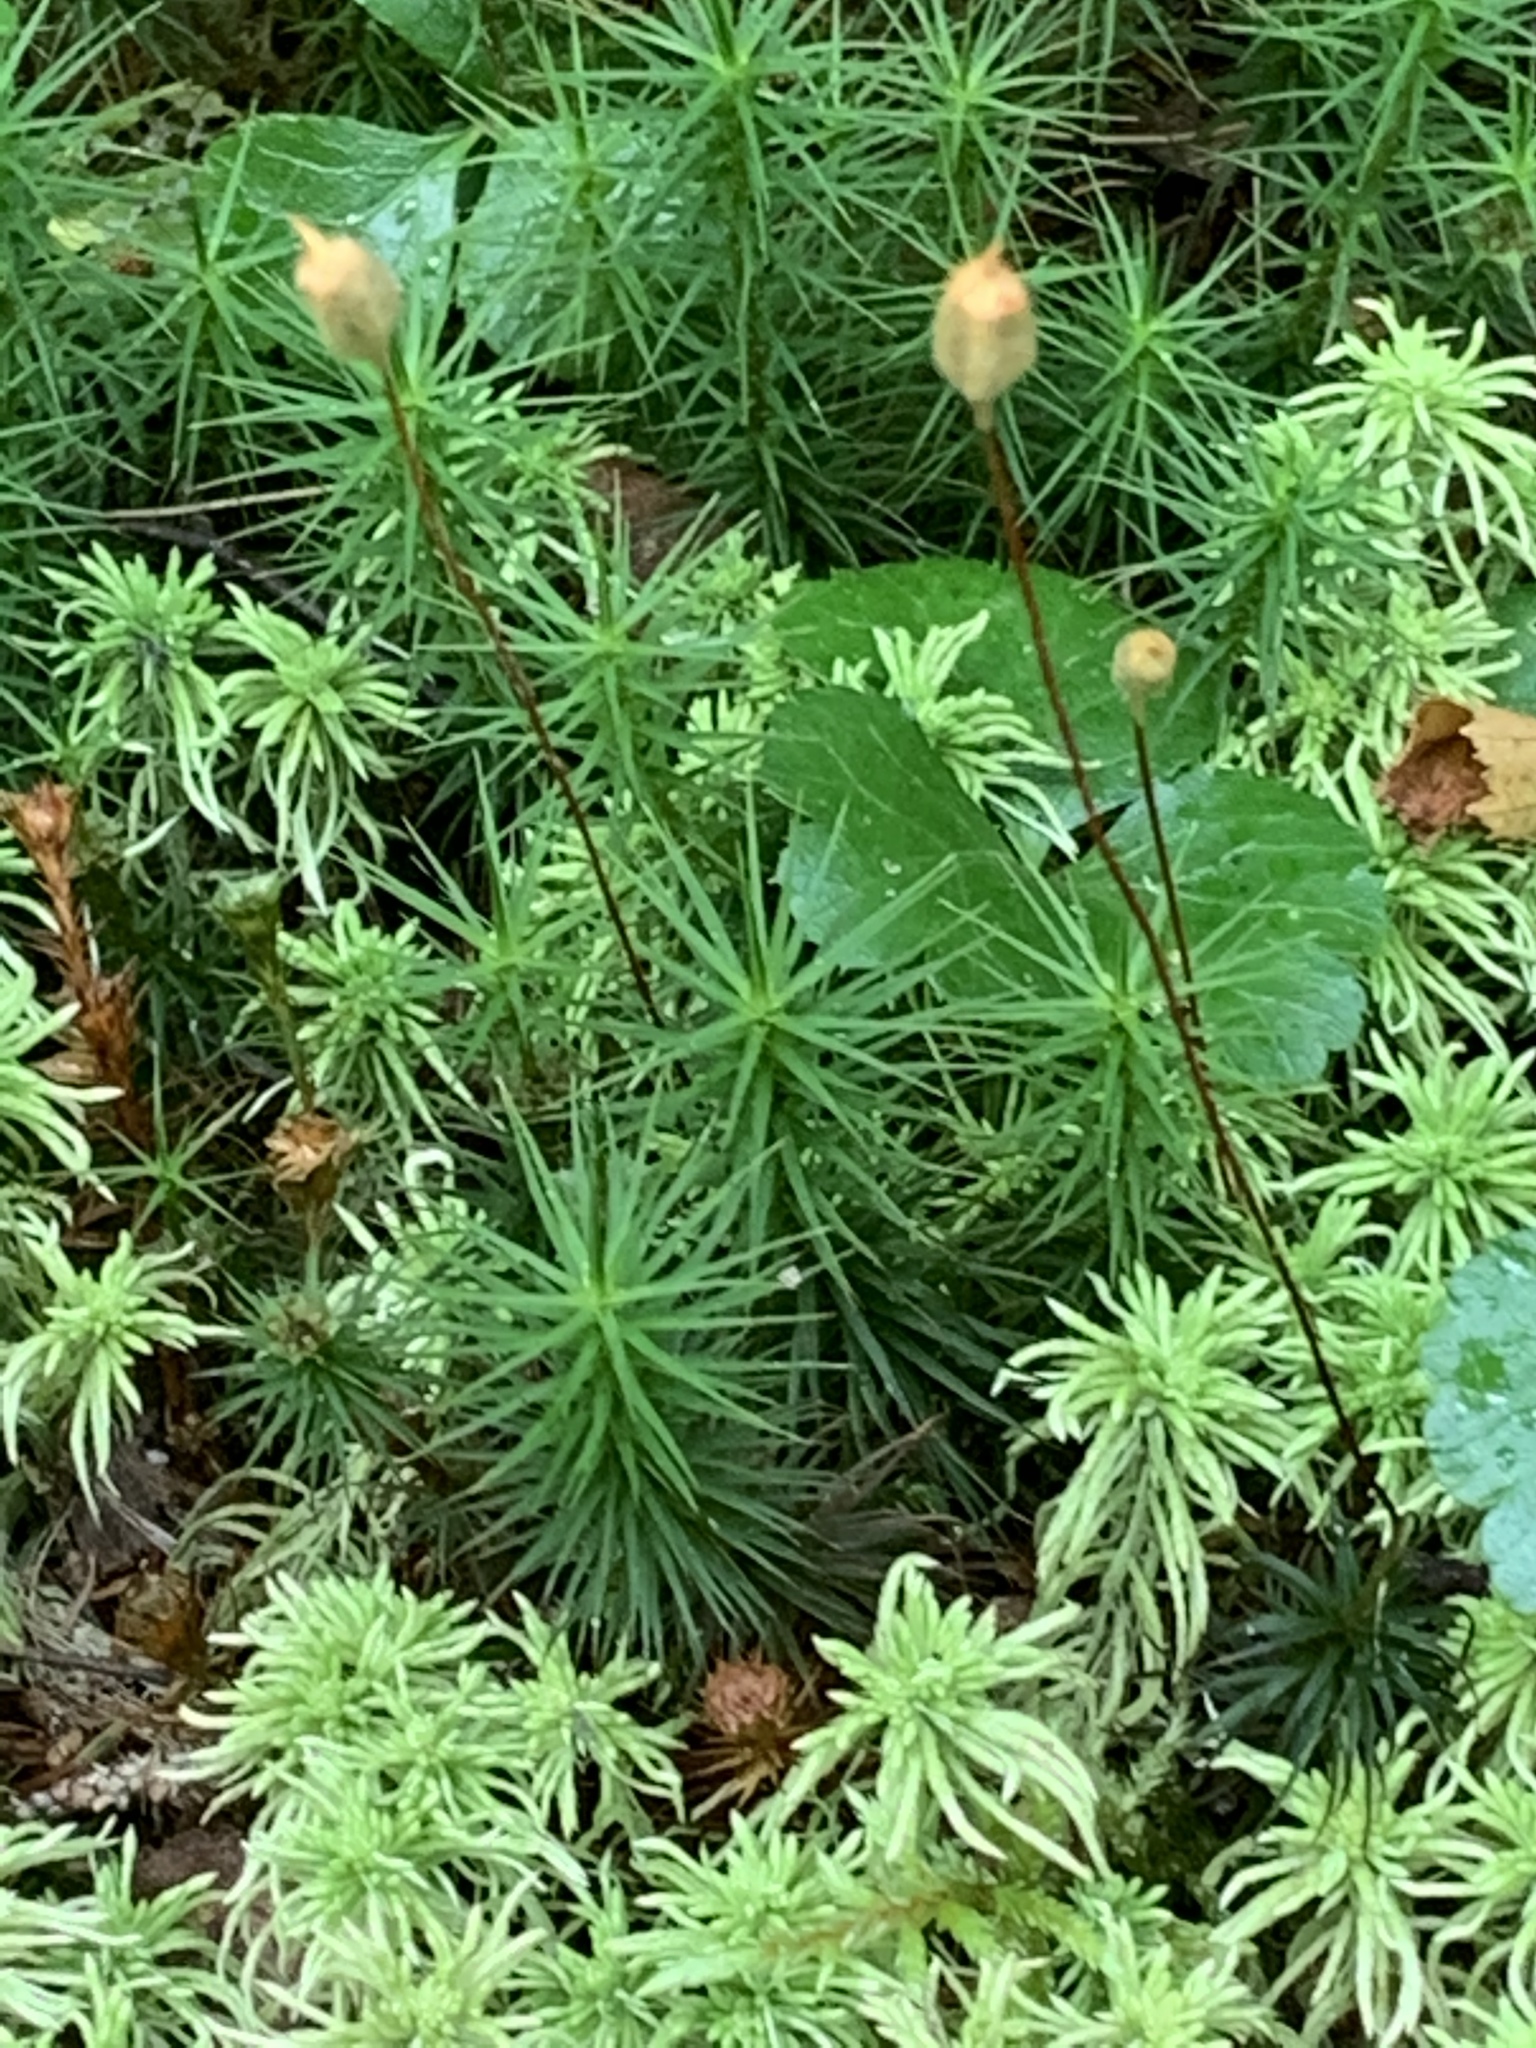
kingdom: Plantae
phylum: Bryophyta
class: Polytrichopsida
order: Polytrichales
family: Polytrichaceae
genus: Polytrichum
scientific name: Polytrichum commune
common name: Common haircap
